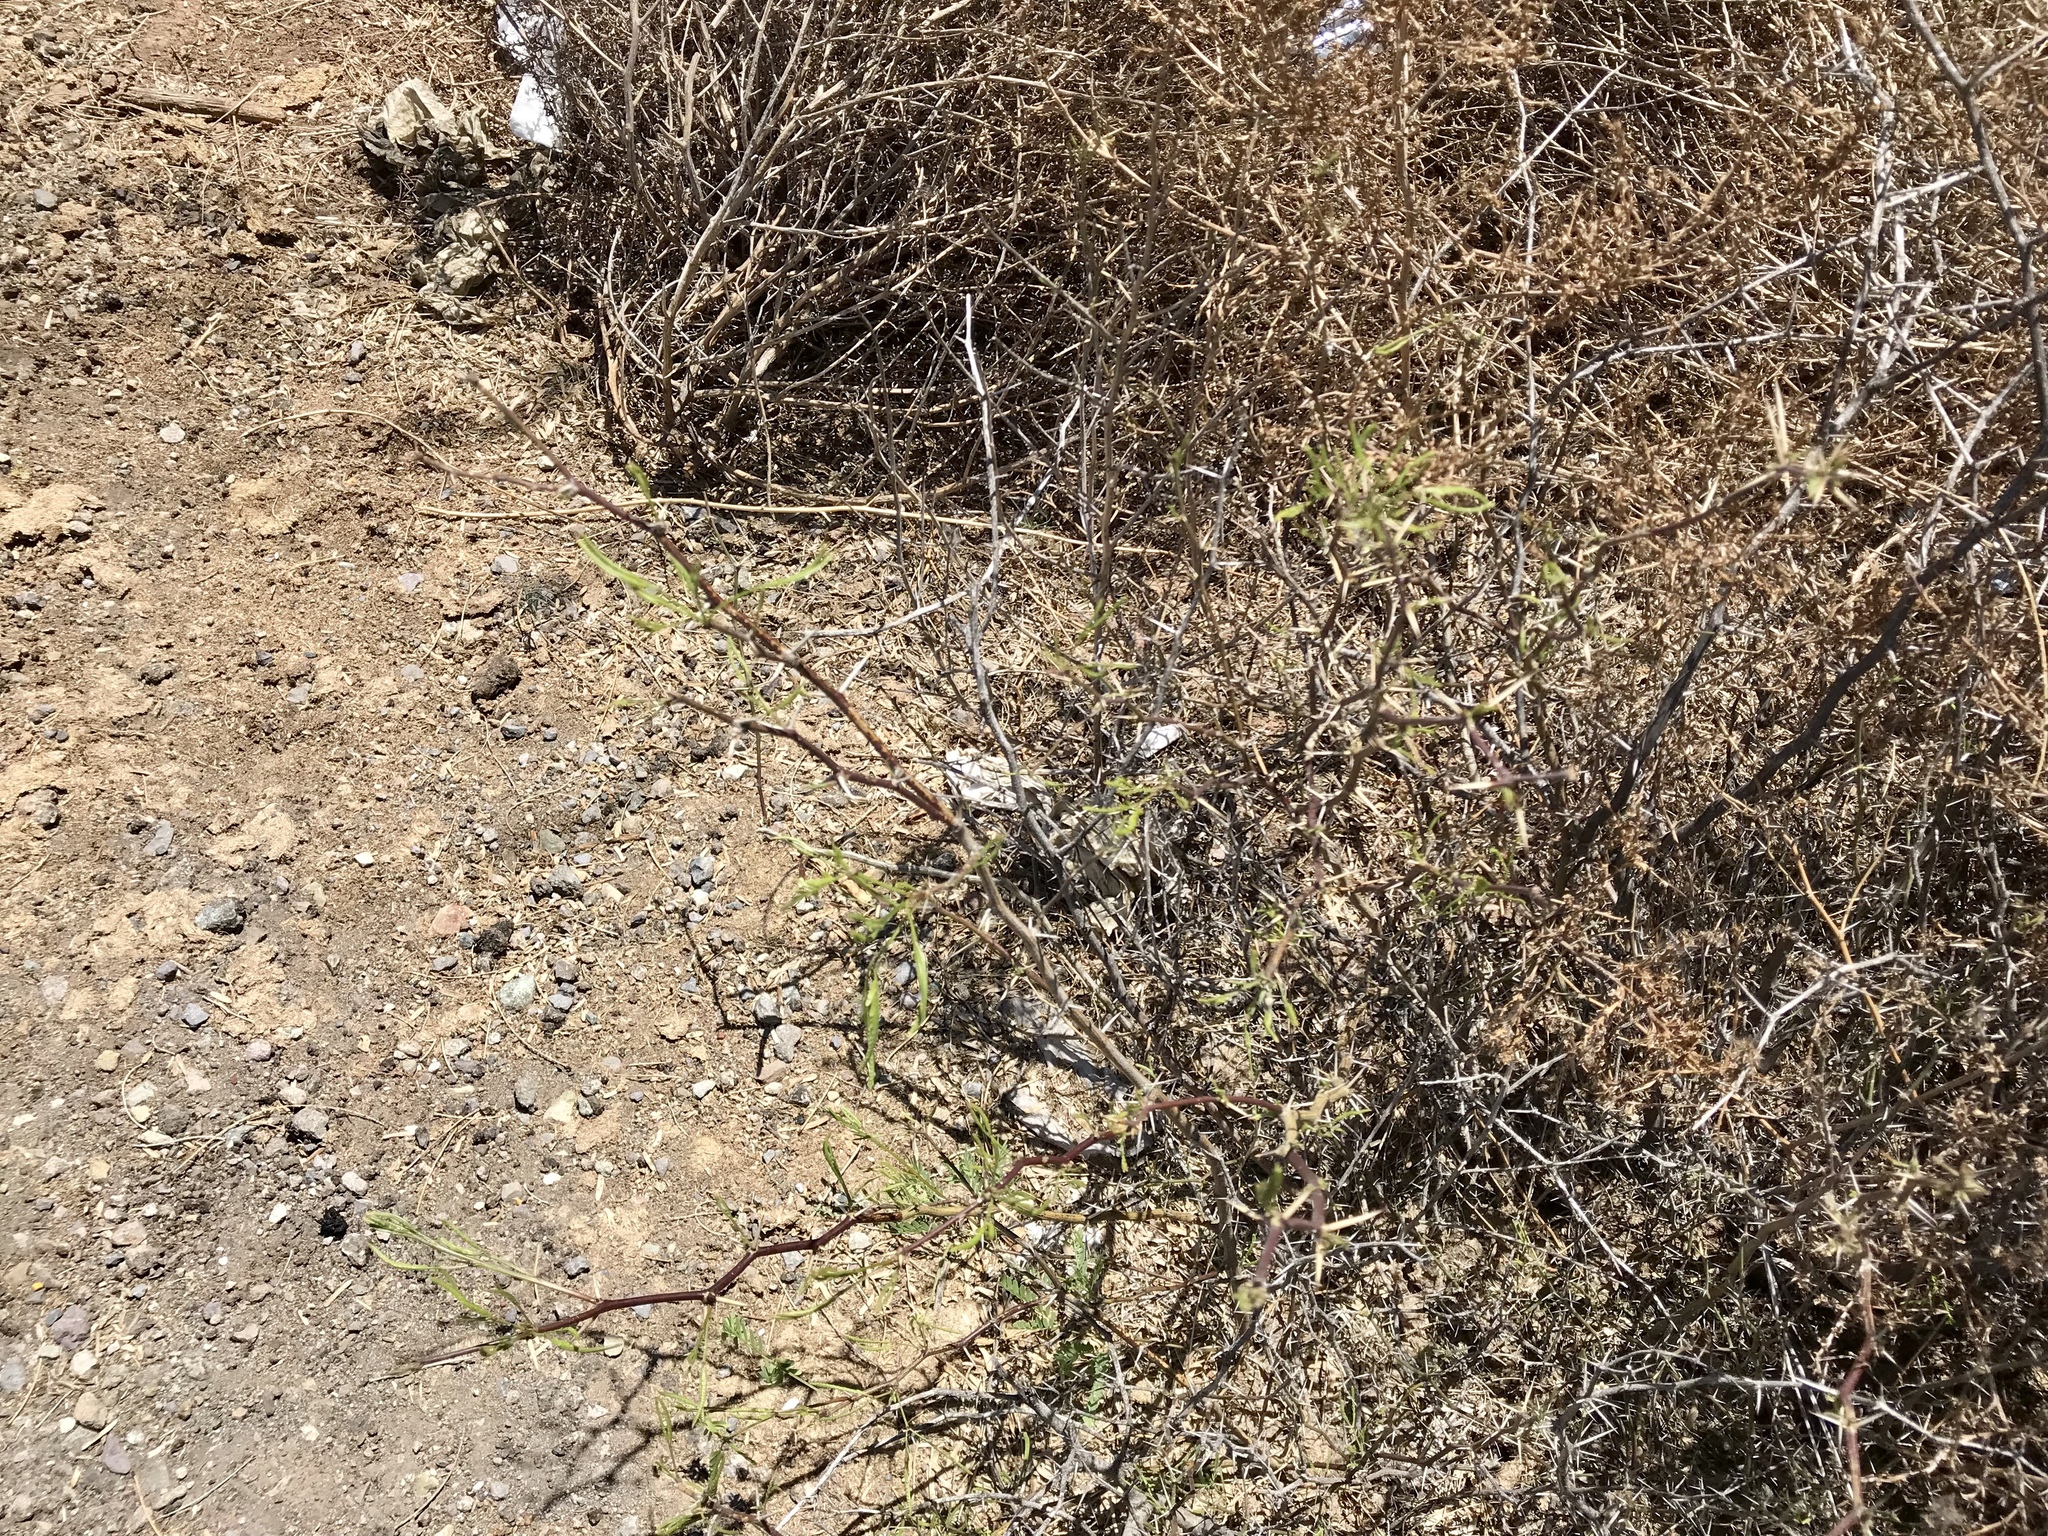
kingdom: Plantae
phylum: Tracheophyta
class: Magnoliopsida
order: Fabales
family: Fabaceae
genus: Prosopis
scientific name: Prosopis glandulosa
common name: Honey mesquite
